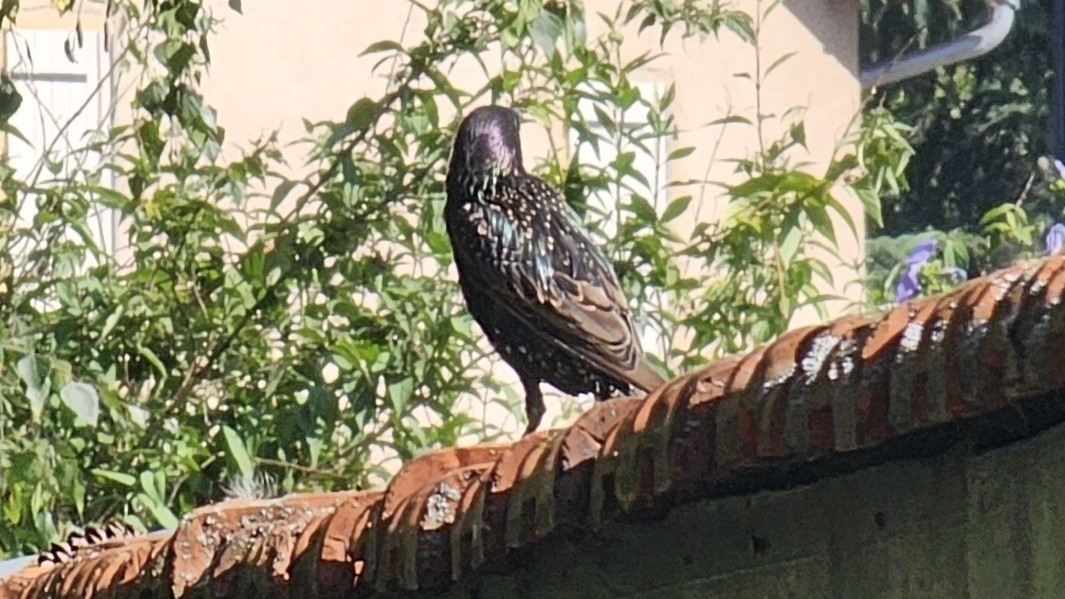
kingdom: Animalia
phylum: Chordata
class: Aves
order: Passeriformes
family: Sturnidae
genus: Sturnus
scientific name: Sturnus vulgaris
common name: Common starling
